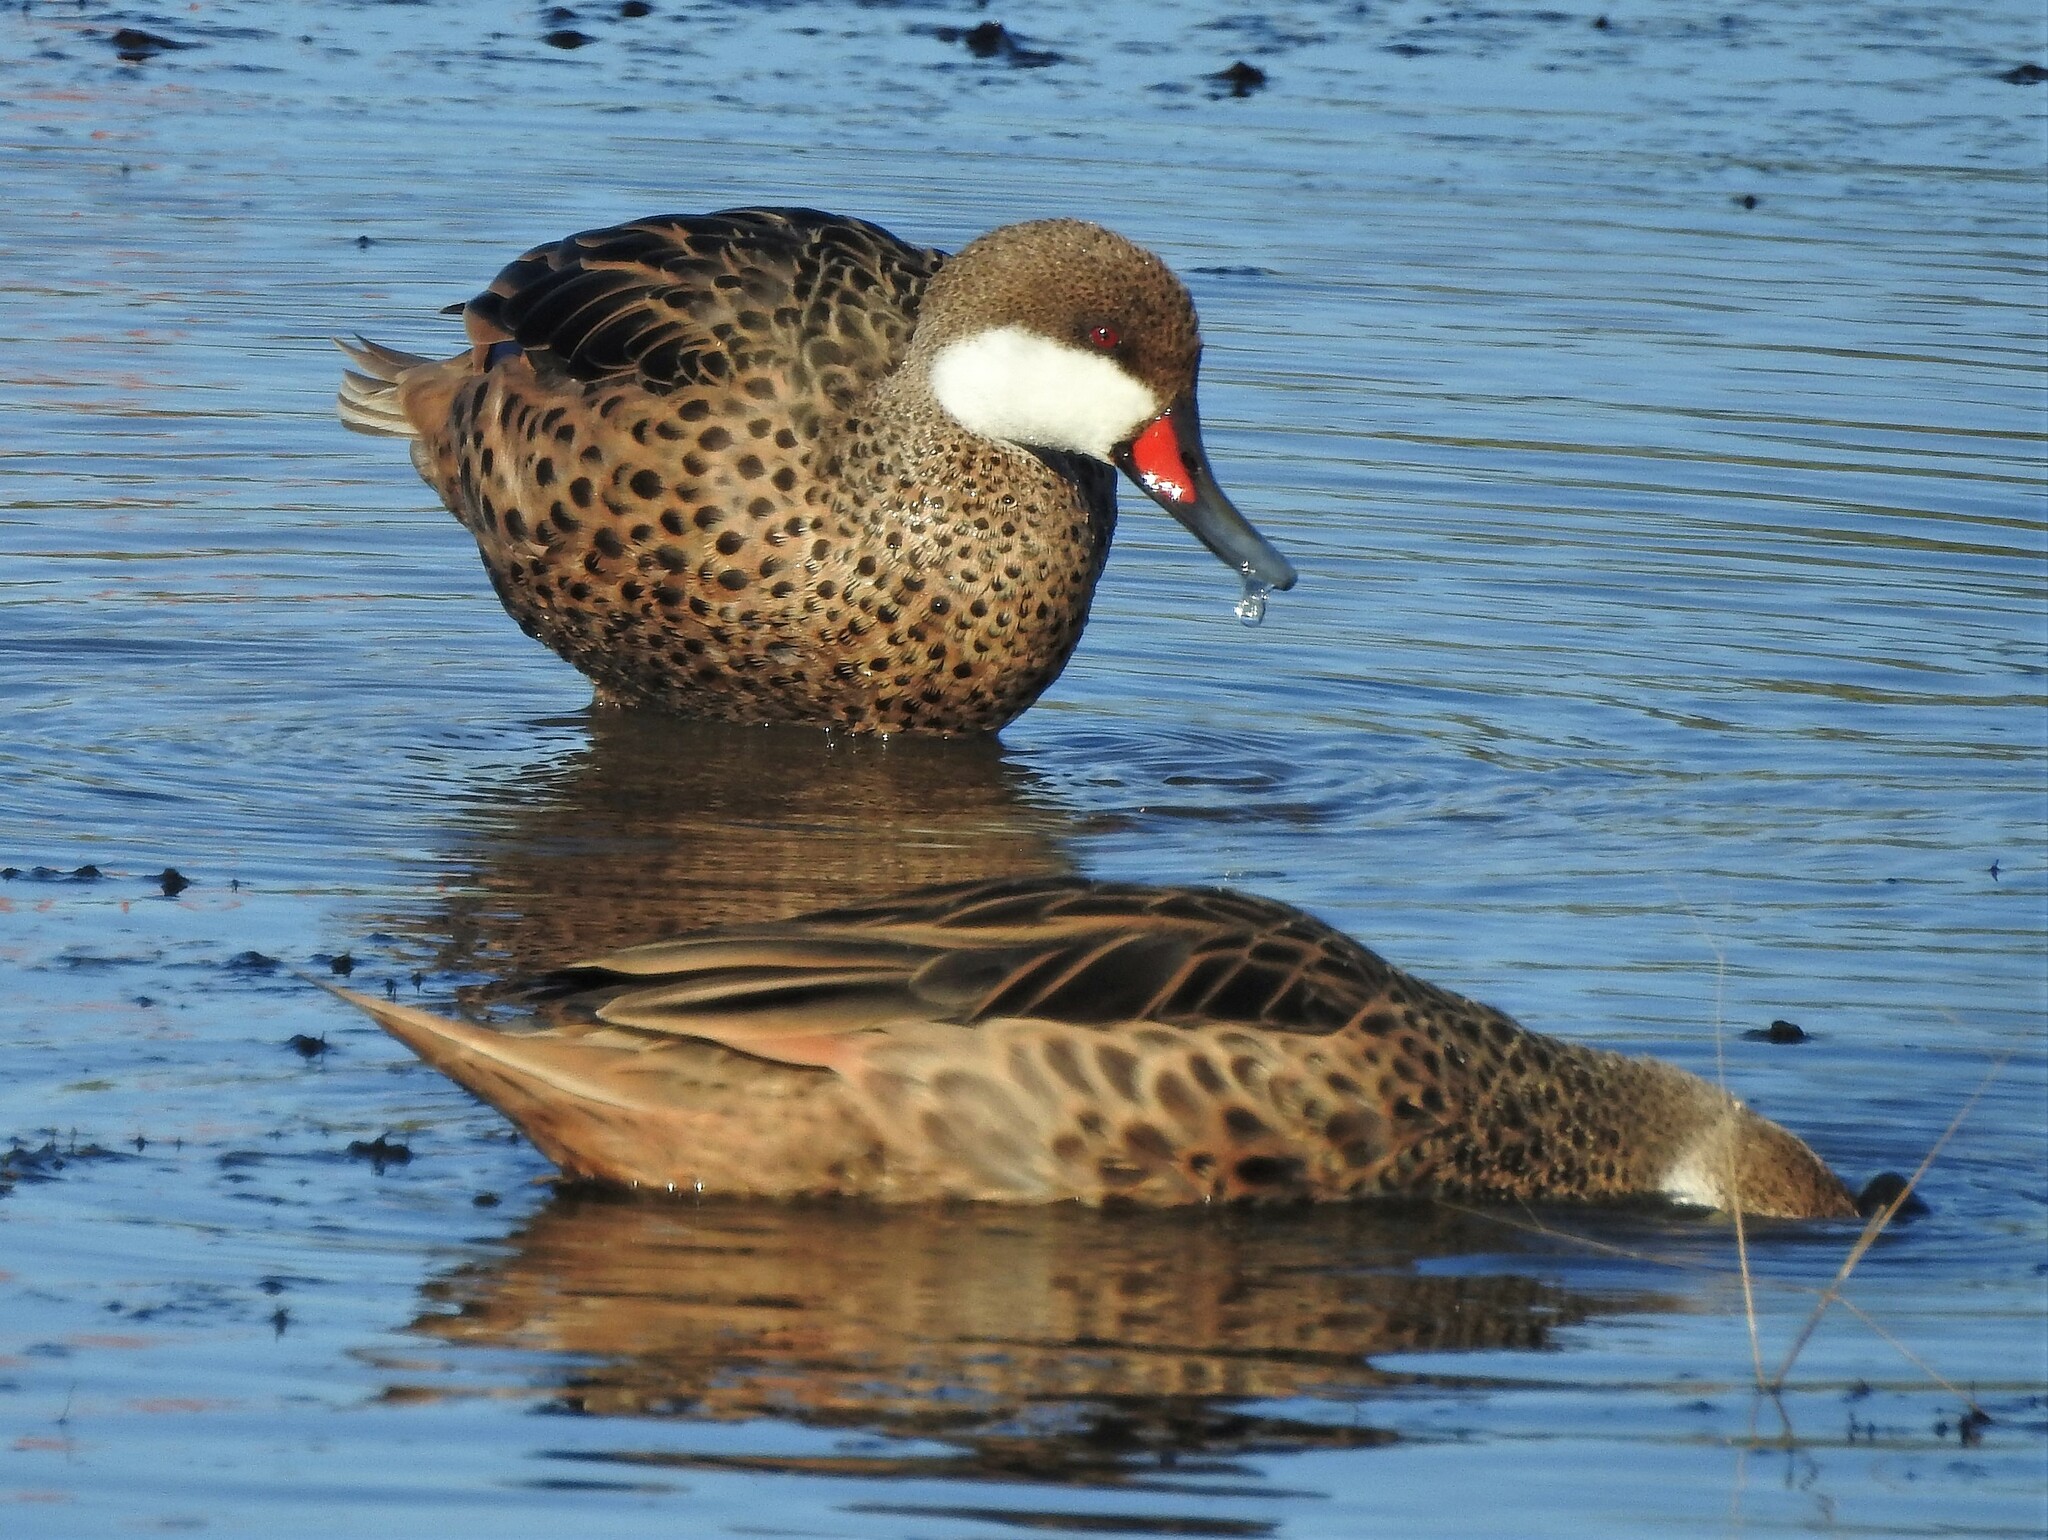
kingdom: Animalia
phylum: Chordata
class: Aves
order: Anseriformes
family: Anatidae
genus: Anas
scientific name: Anas bahamensis
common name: White-cheeked pintail
